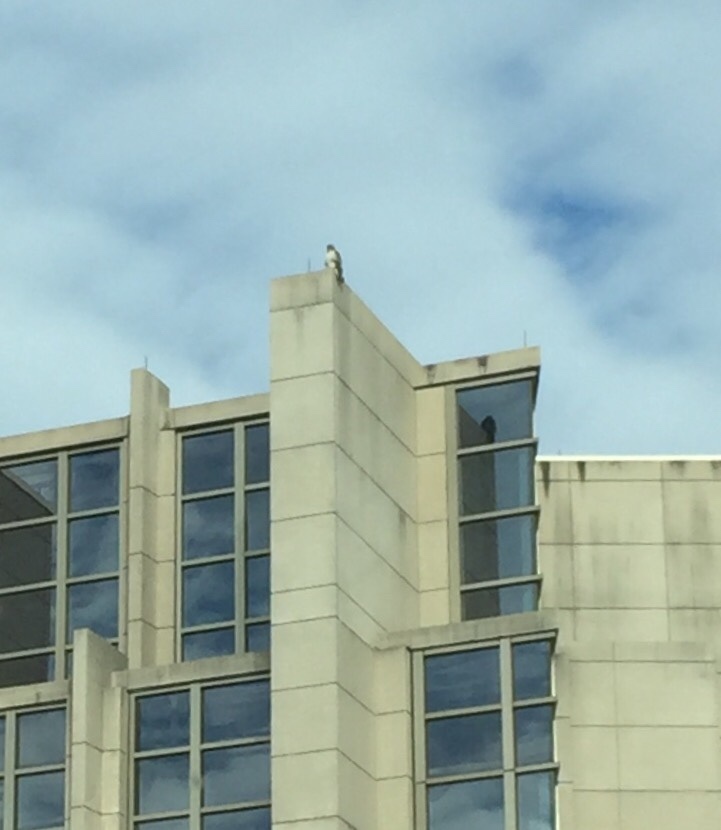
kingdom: Animalia
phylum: Chordata
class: Aves
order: Accipitriformes
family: Accipitridae
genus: Buteo
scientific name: Buteo jamaicensis
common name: Red-tailed hawk
